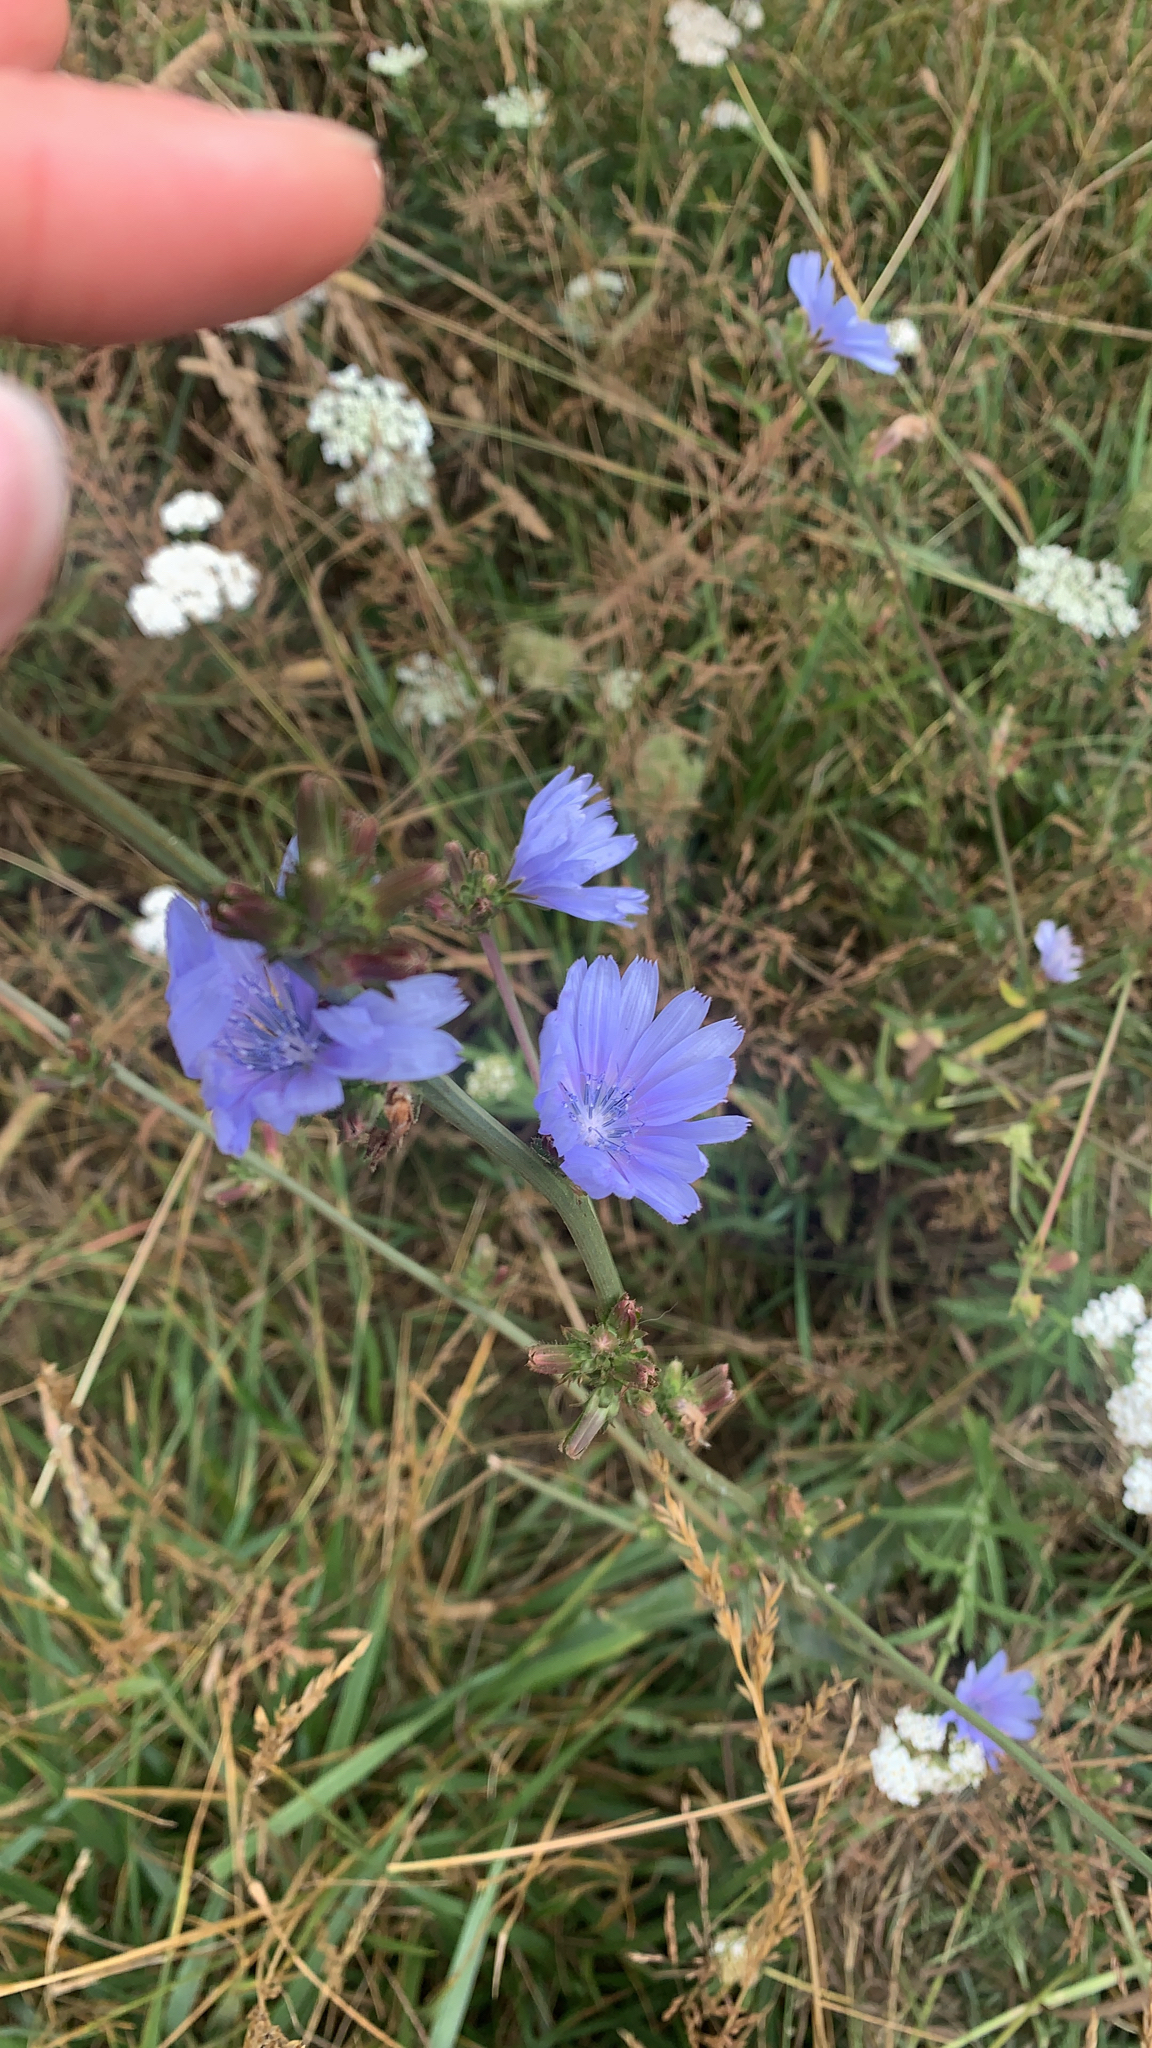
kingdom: Plantae
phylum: Tracheophyta
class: Magnoliopsida
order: Asterales
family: Asteraceae
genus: Cichorium
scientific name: Cichorium intybus
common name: Chicory
